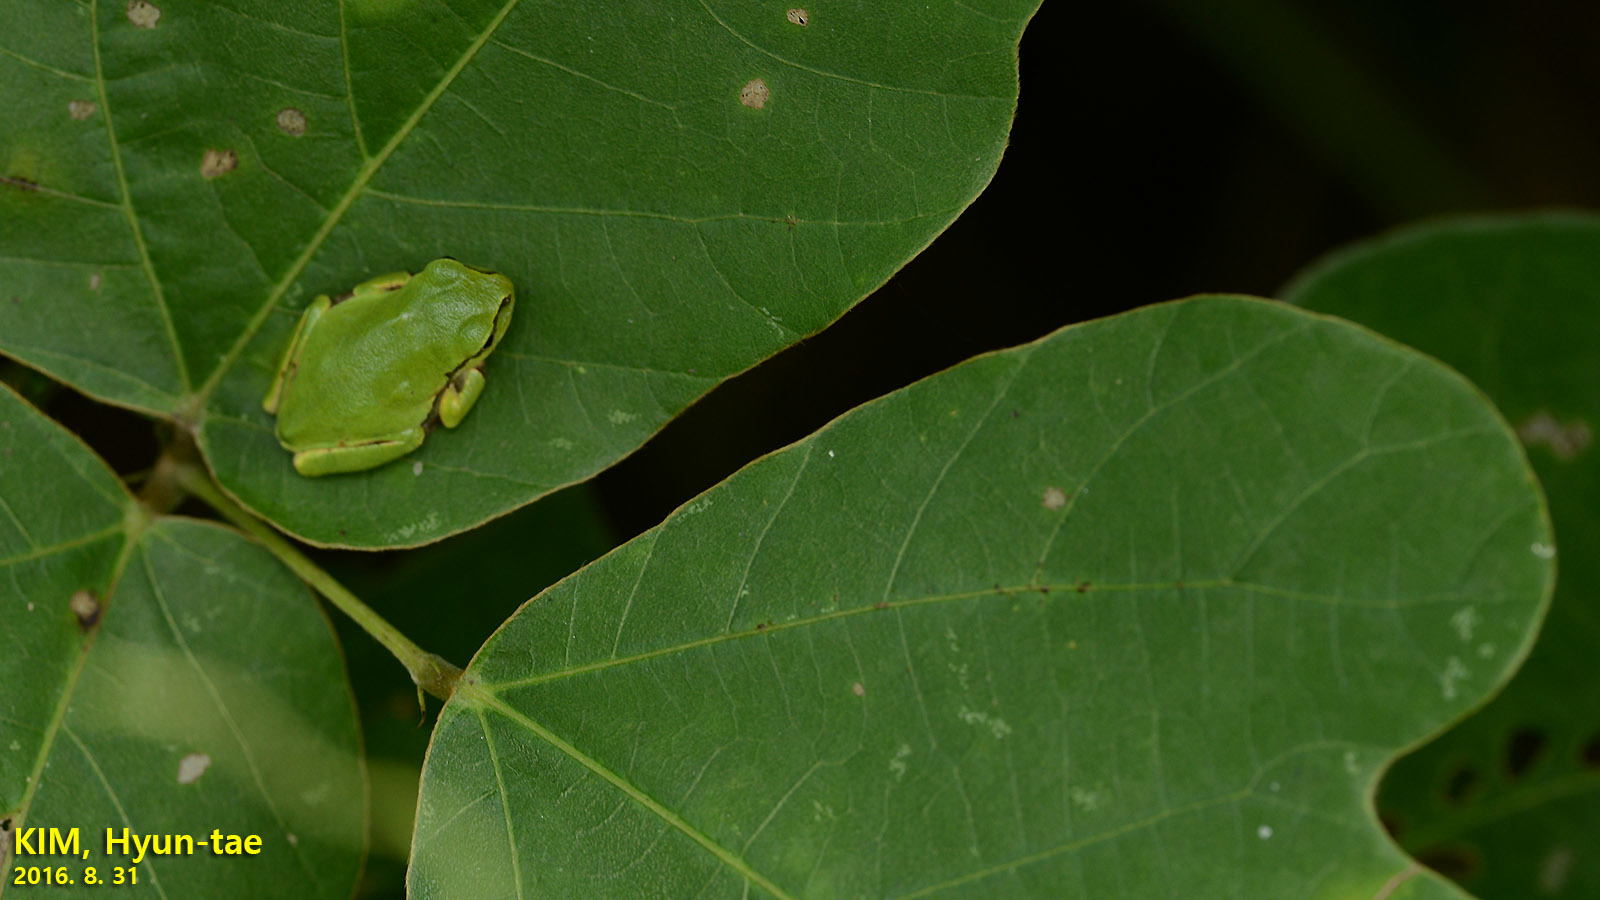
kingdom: Animalia
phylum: Chordata
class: Amphibia
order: Anura
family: Hylidae
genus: Dryophytes
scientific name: Dryophytes japonicus
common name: Japanese treefrog
